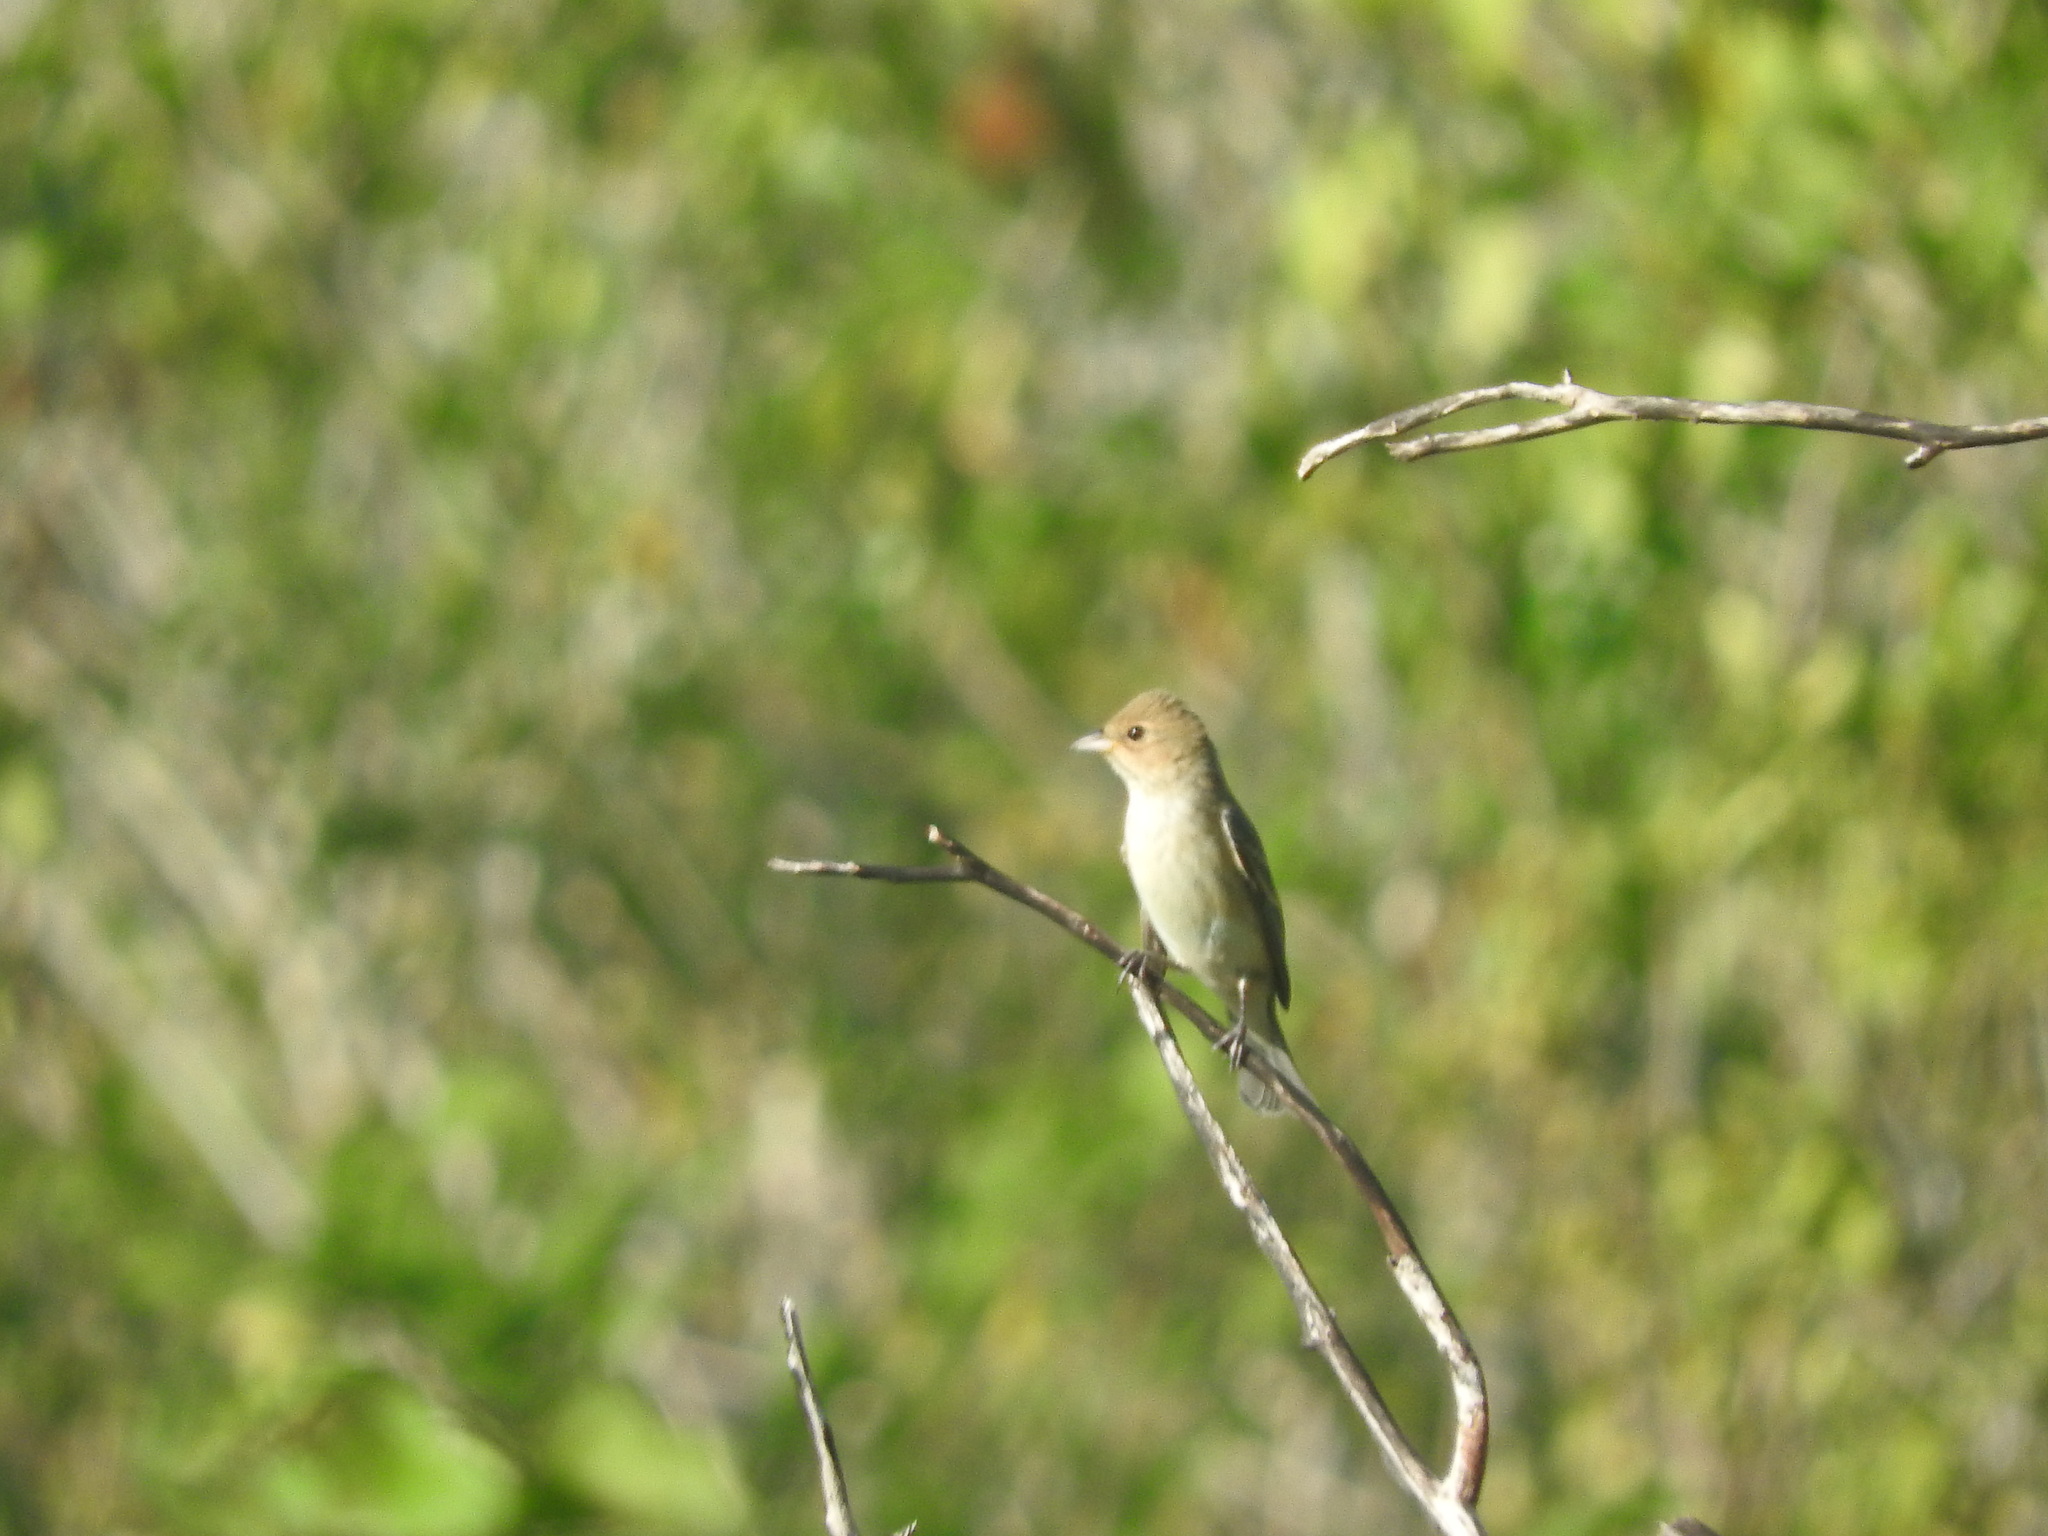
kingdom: Animalia
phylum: Chordata
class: Aves
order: Passeriformes
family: Cardinalidae
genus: Passerina
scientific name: Passerina cyanea
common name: Indigo bunting
